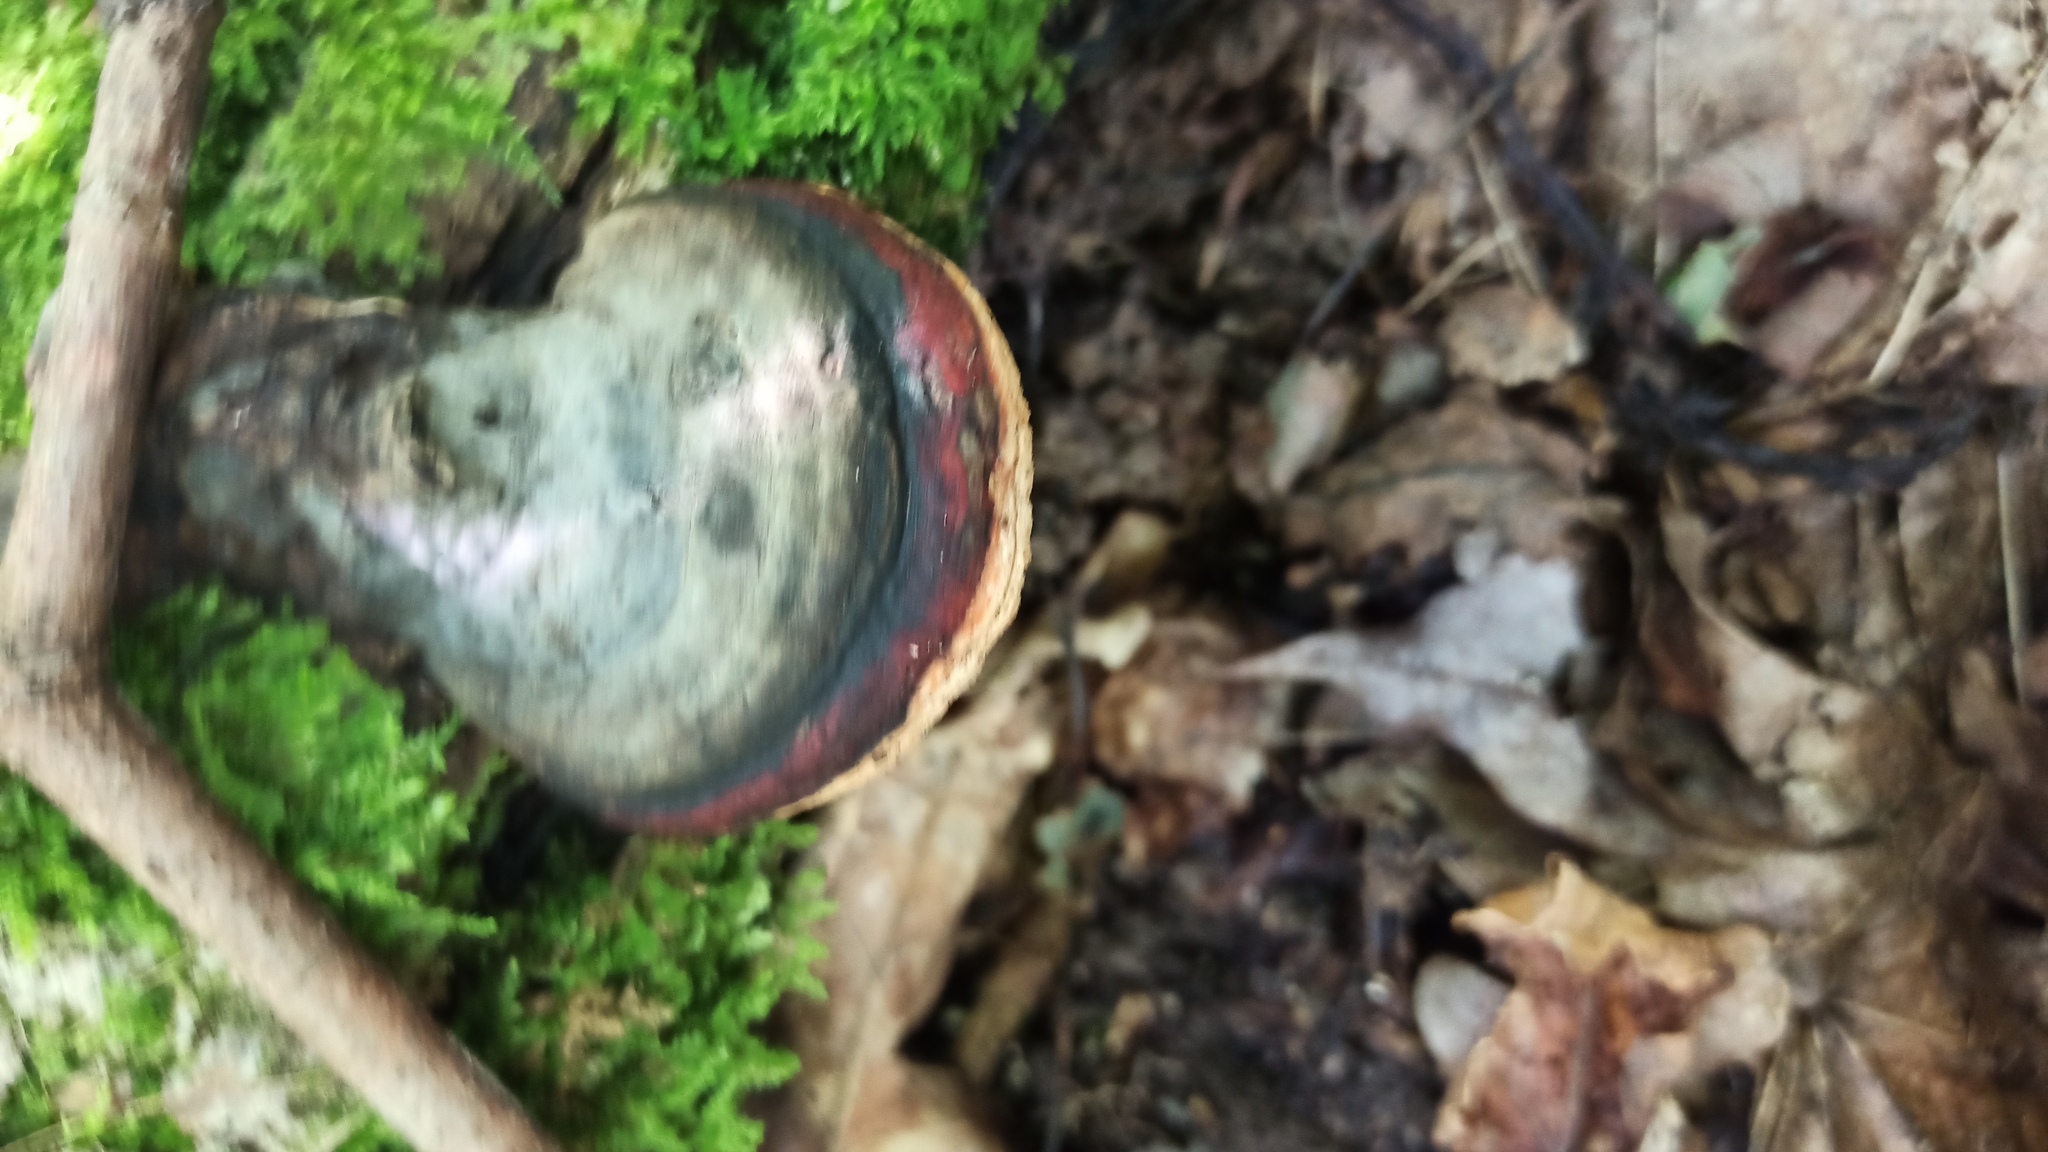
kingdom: Fungi
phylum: Basidiomycota
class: Agaricomycetes
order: Polyporales
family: Fomitopsidaceae
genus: Fomitopsis
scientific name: Fomitopsis pinicola
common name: Red-belted bracket
